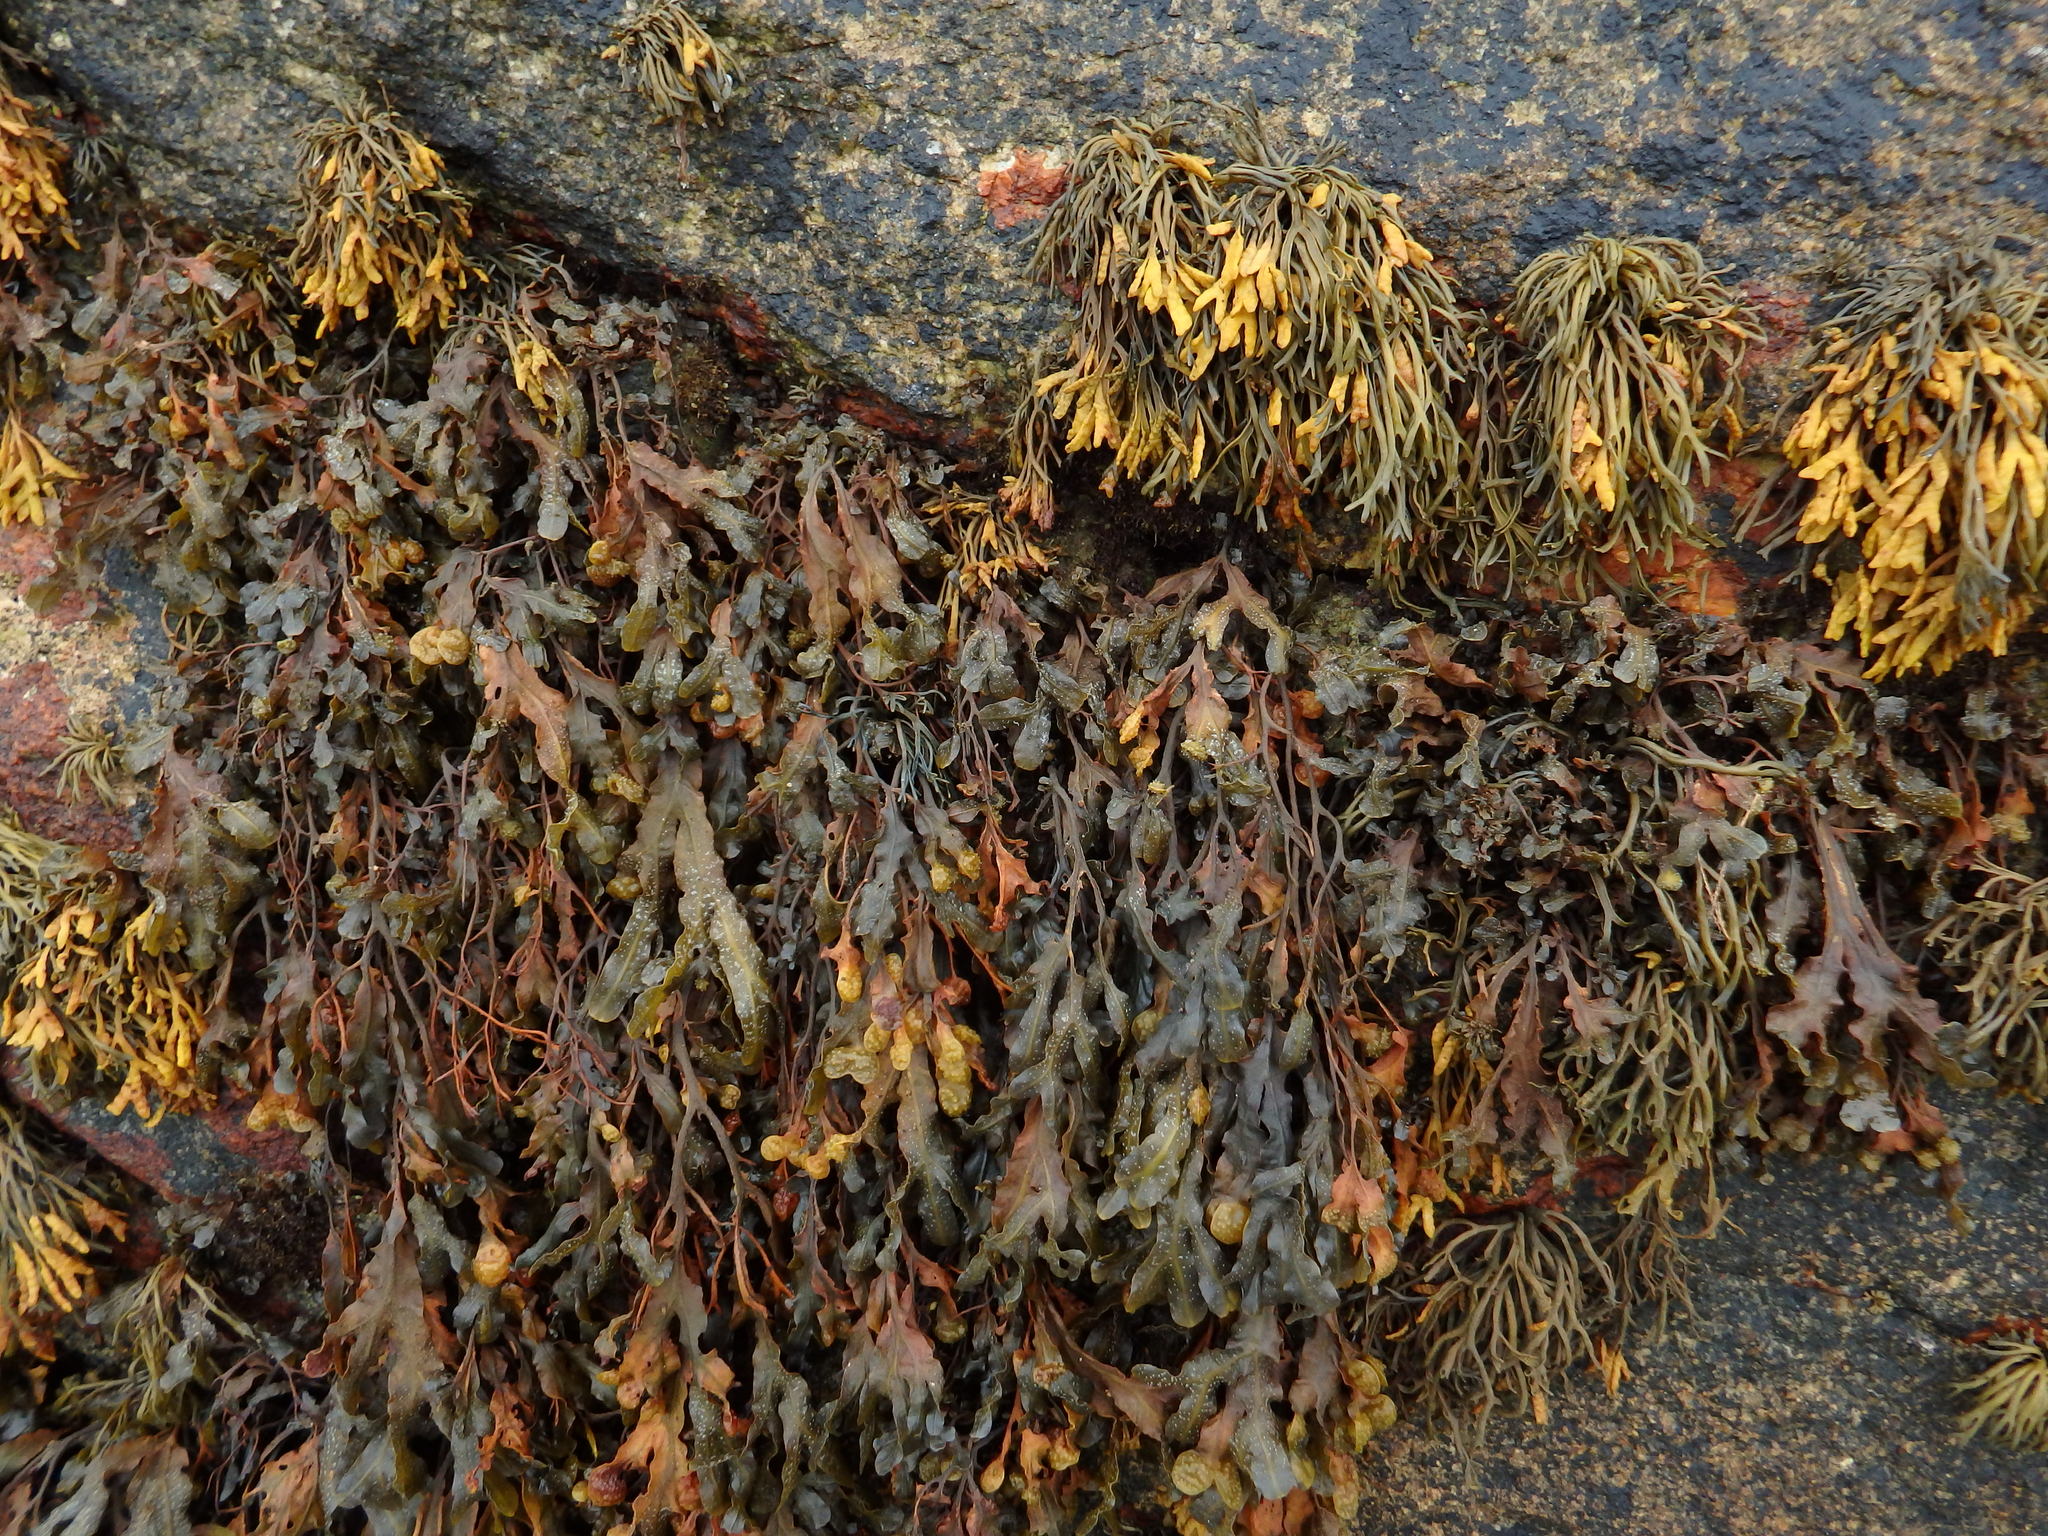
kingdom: Chromista
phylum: Ochrophyta
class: Phaeophyceae
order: Fucales
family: Fucaceae
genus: Fucus
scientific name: Fucus spiralis
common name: Spiral wrack
